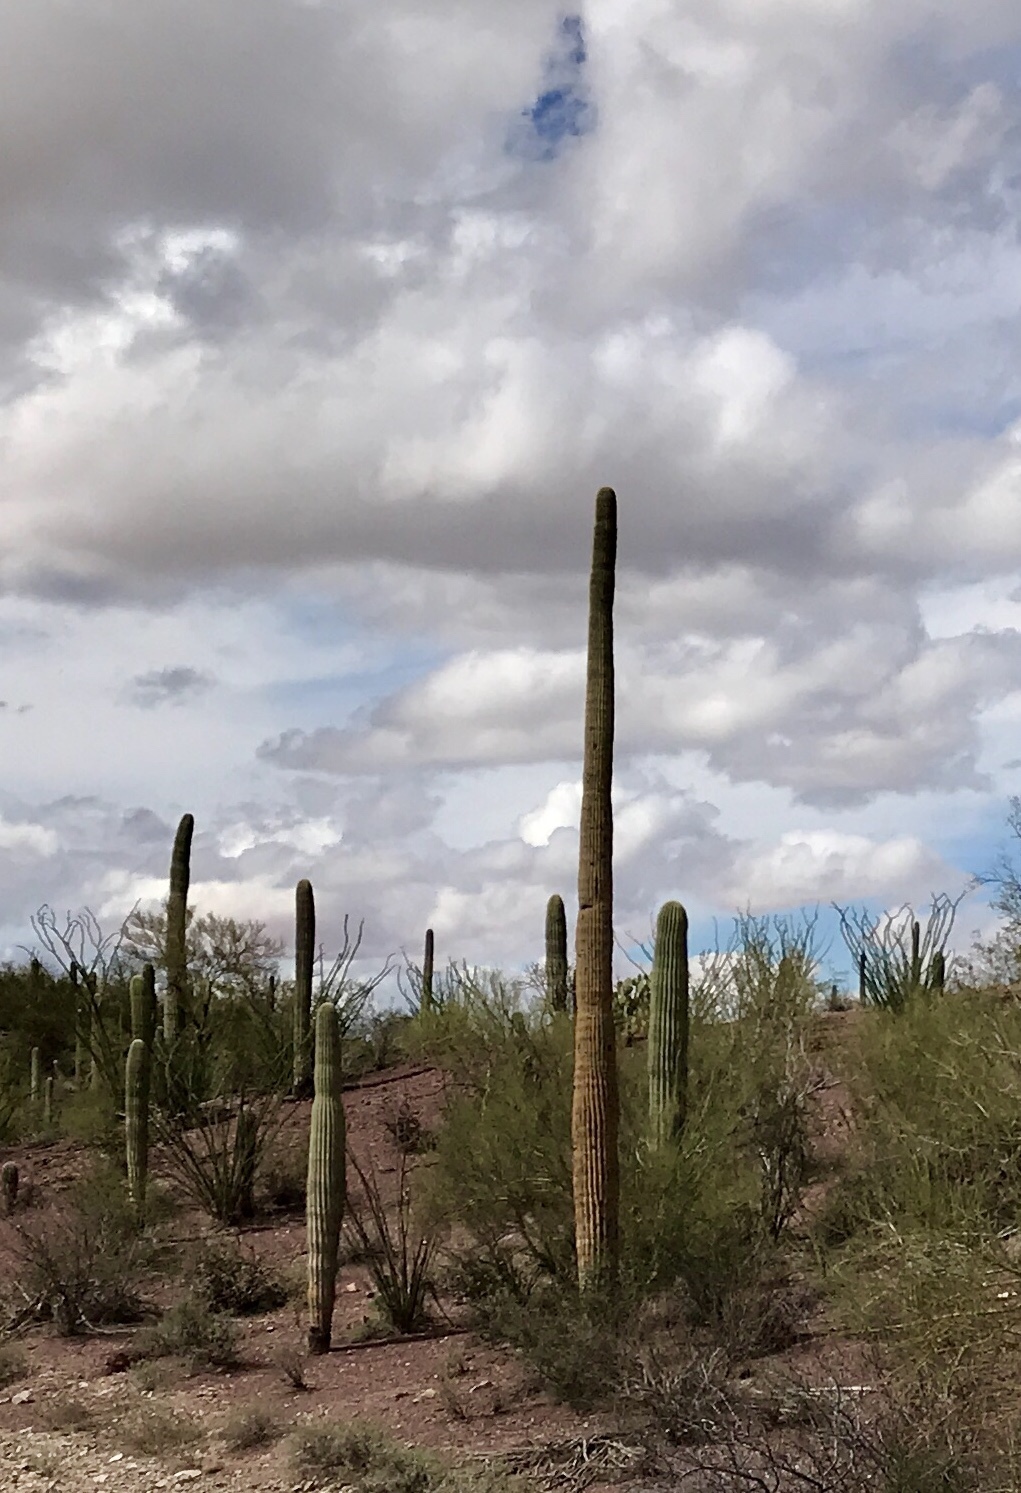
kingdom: Plantae
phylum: Tracheophyta
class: Magnoliopsida
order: Caryophyllales
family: Cactaceae
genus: Carnegiea
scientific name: Carnegiea gigantea
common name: Saguaro
